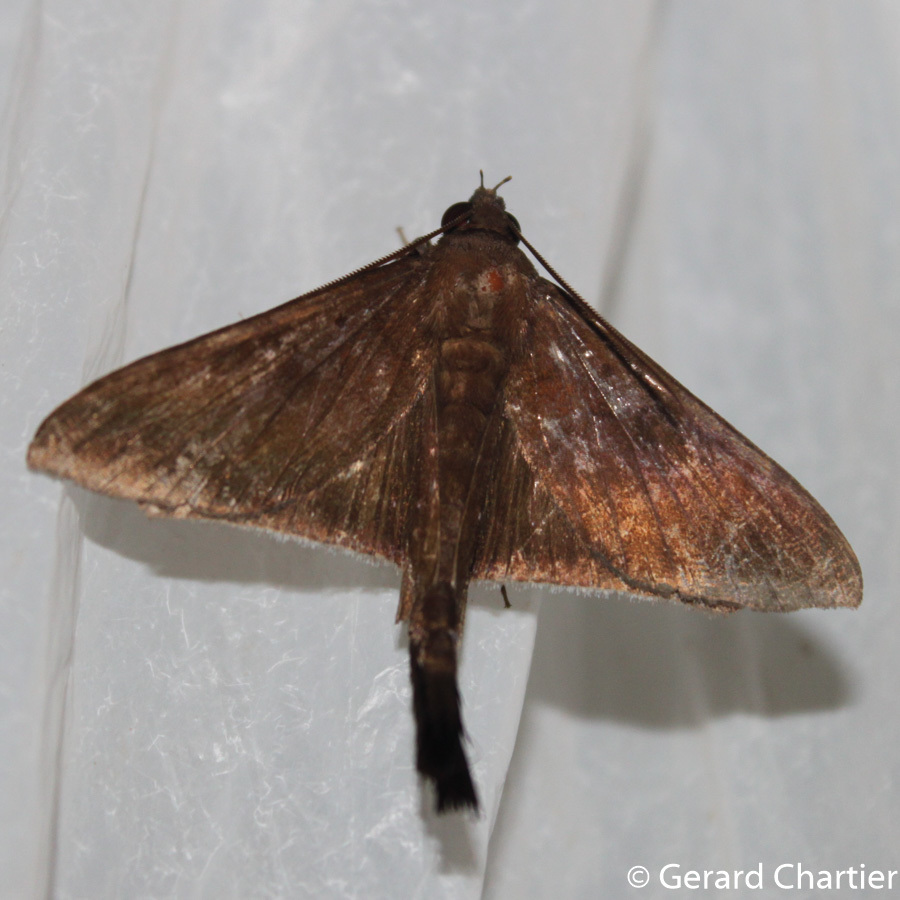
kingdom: Animalia
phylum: Arthropoda
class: Insecta
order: Lepidoptera
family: Erebidae
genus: Platyja
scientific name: Platyja umbrina
